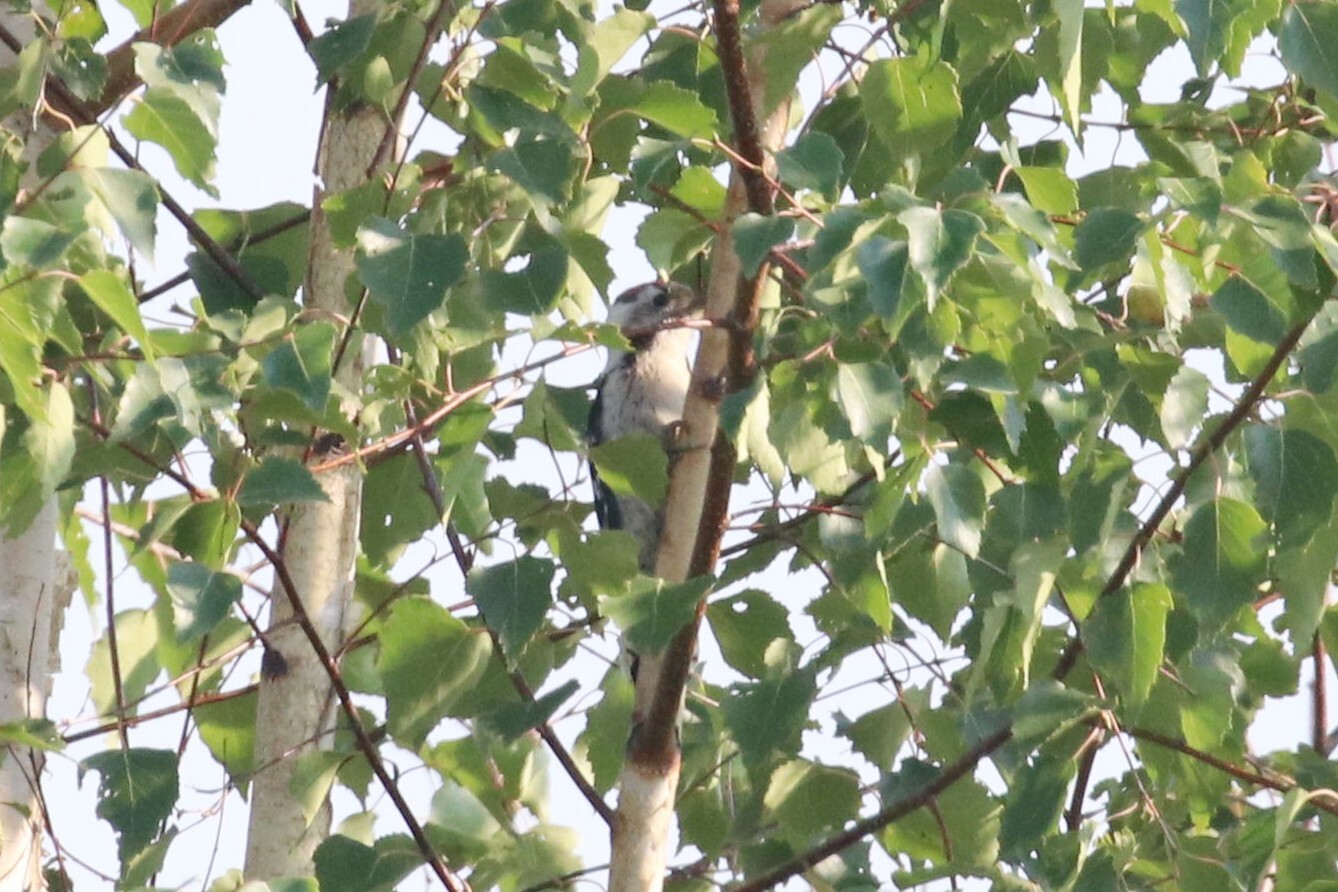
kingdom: Animalia
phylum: Chordata
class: Aves
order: Piciformes
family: Picidae
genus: Dryobates
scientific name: Dryobates minor
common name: Lesser spotted woodpecker
